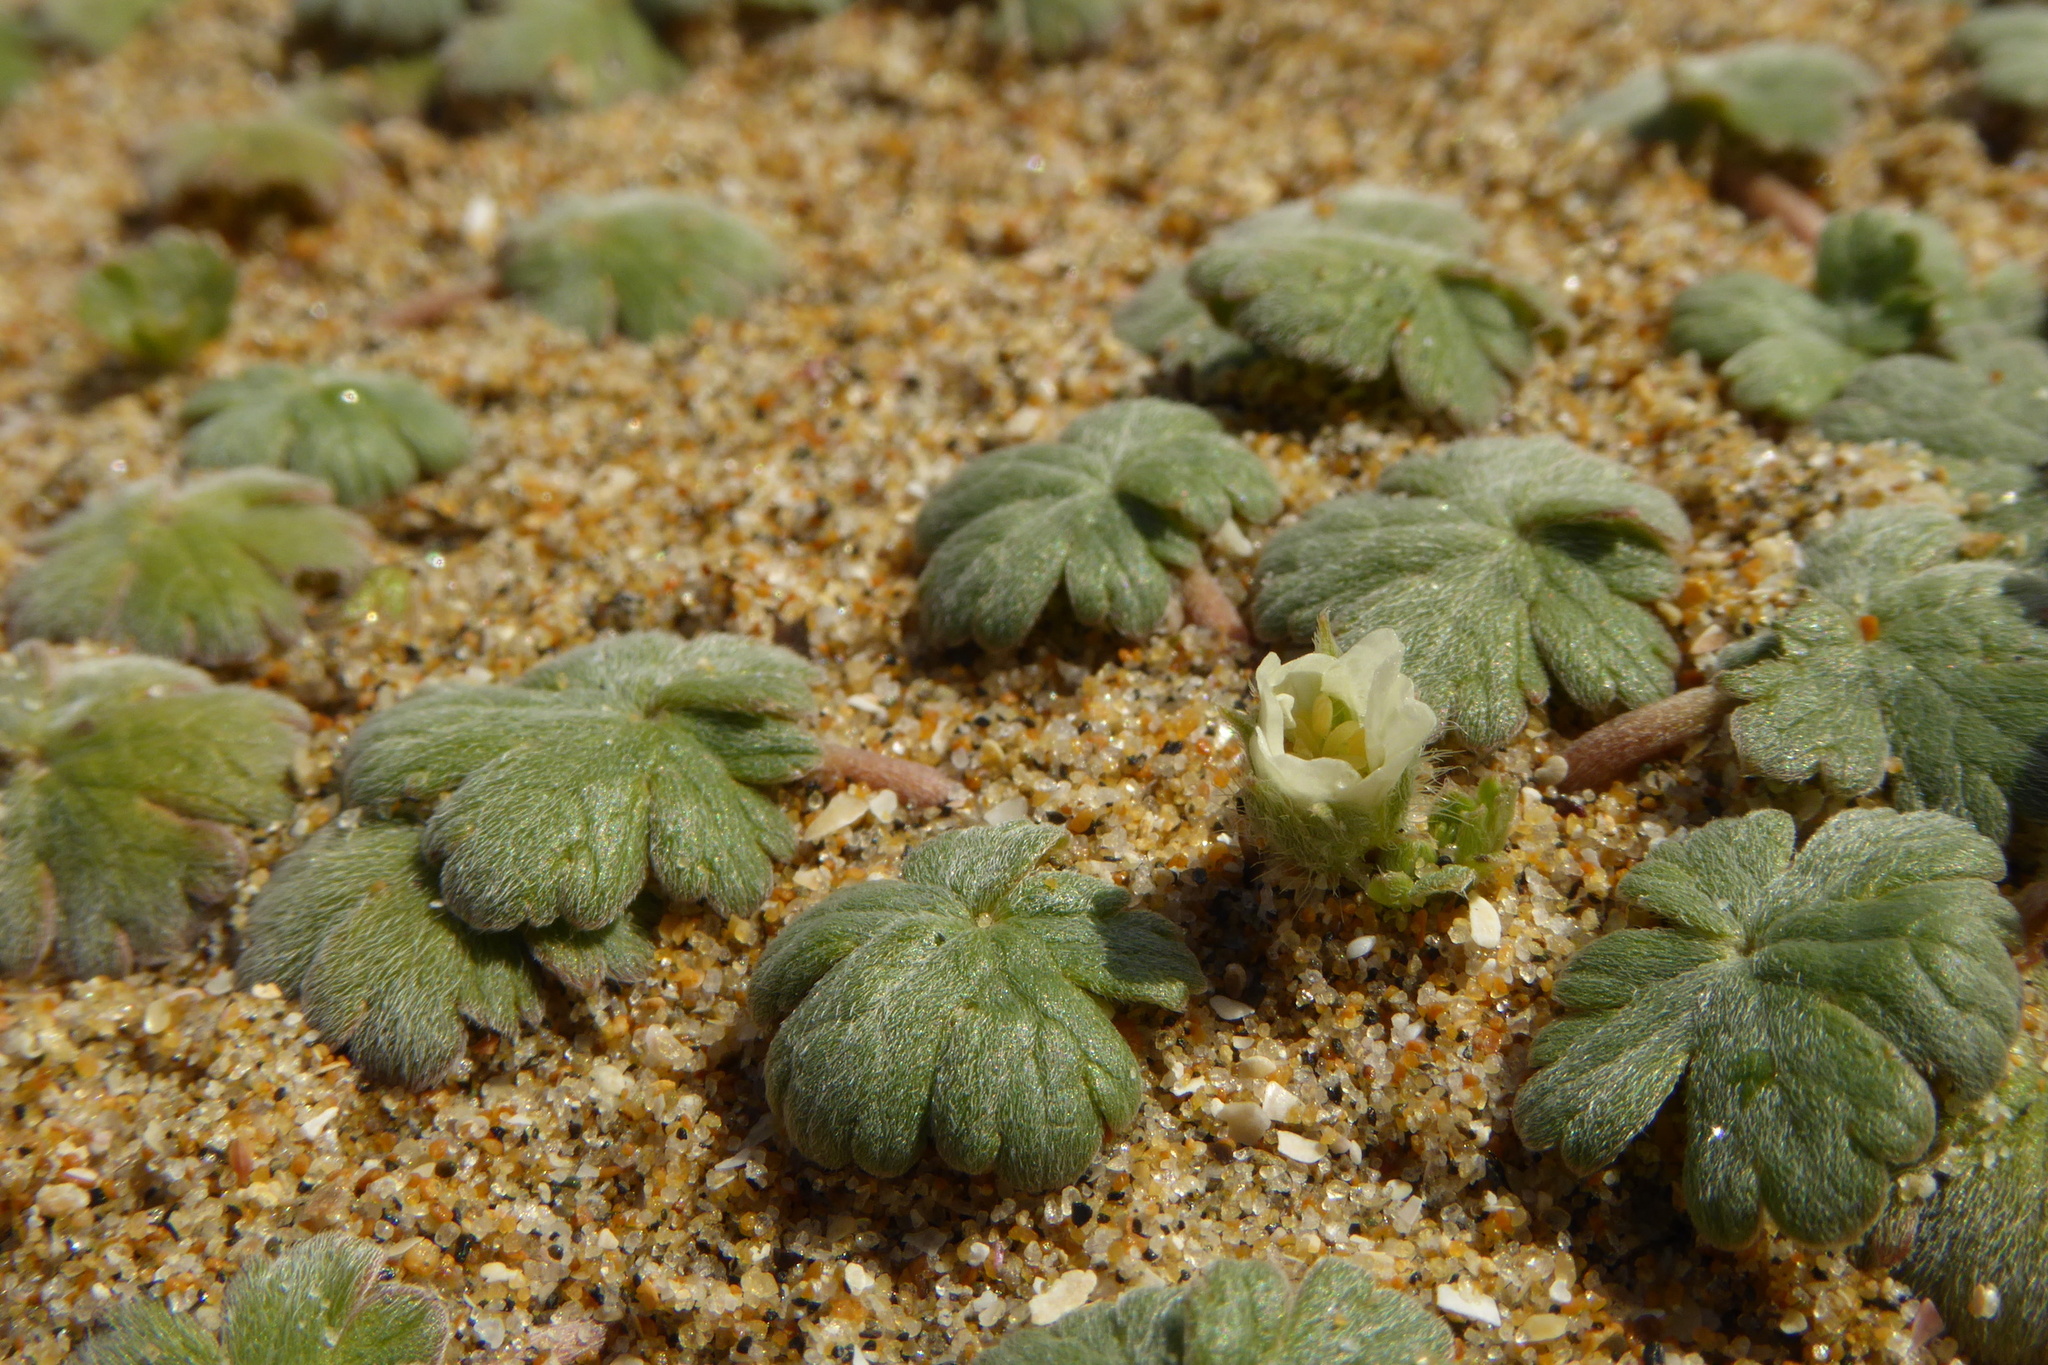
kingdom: Plantae
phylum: Tracheophyta
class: Magnoliopsida
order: Geraniales
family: Geraniaceae
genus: Geranium
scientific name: Geranium brevicaule
